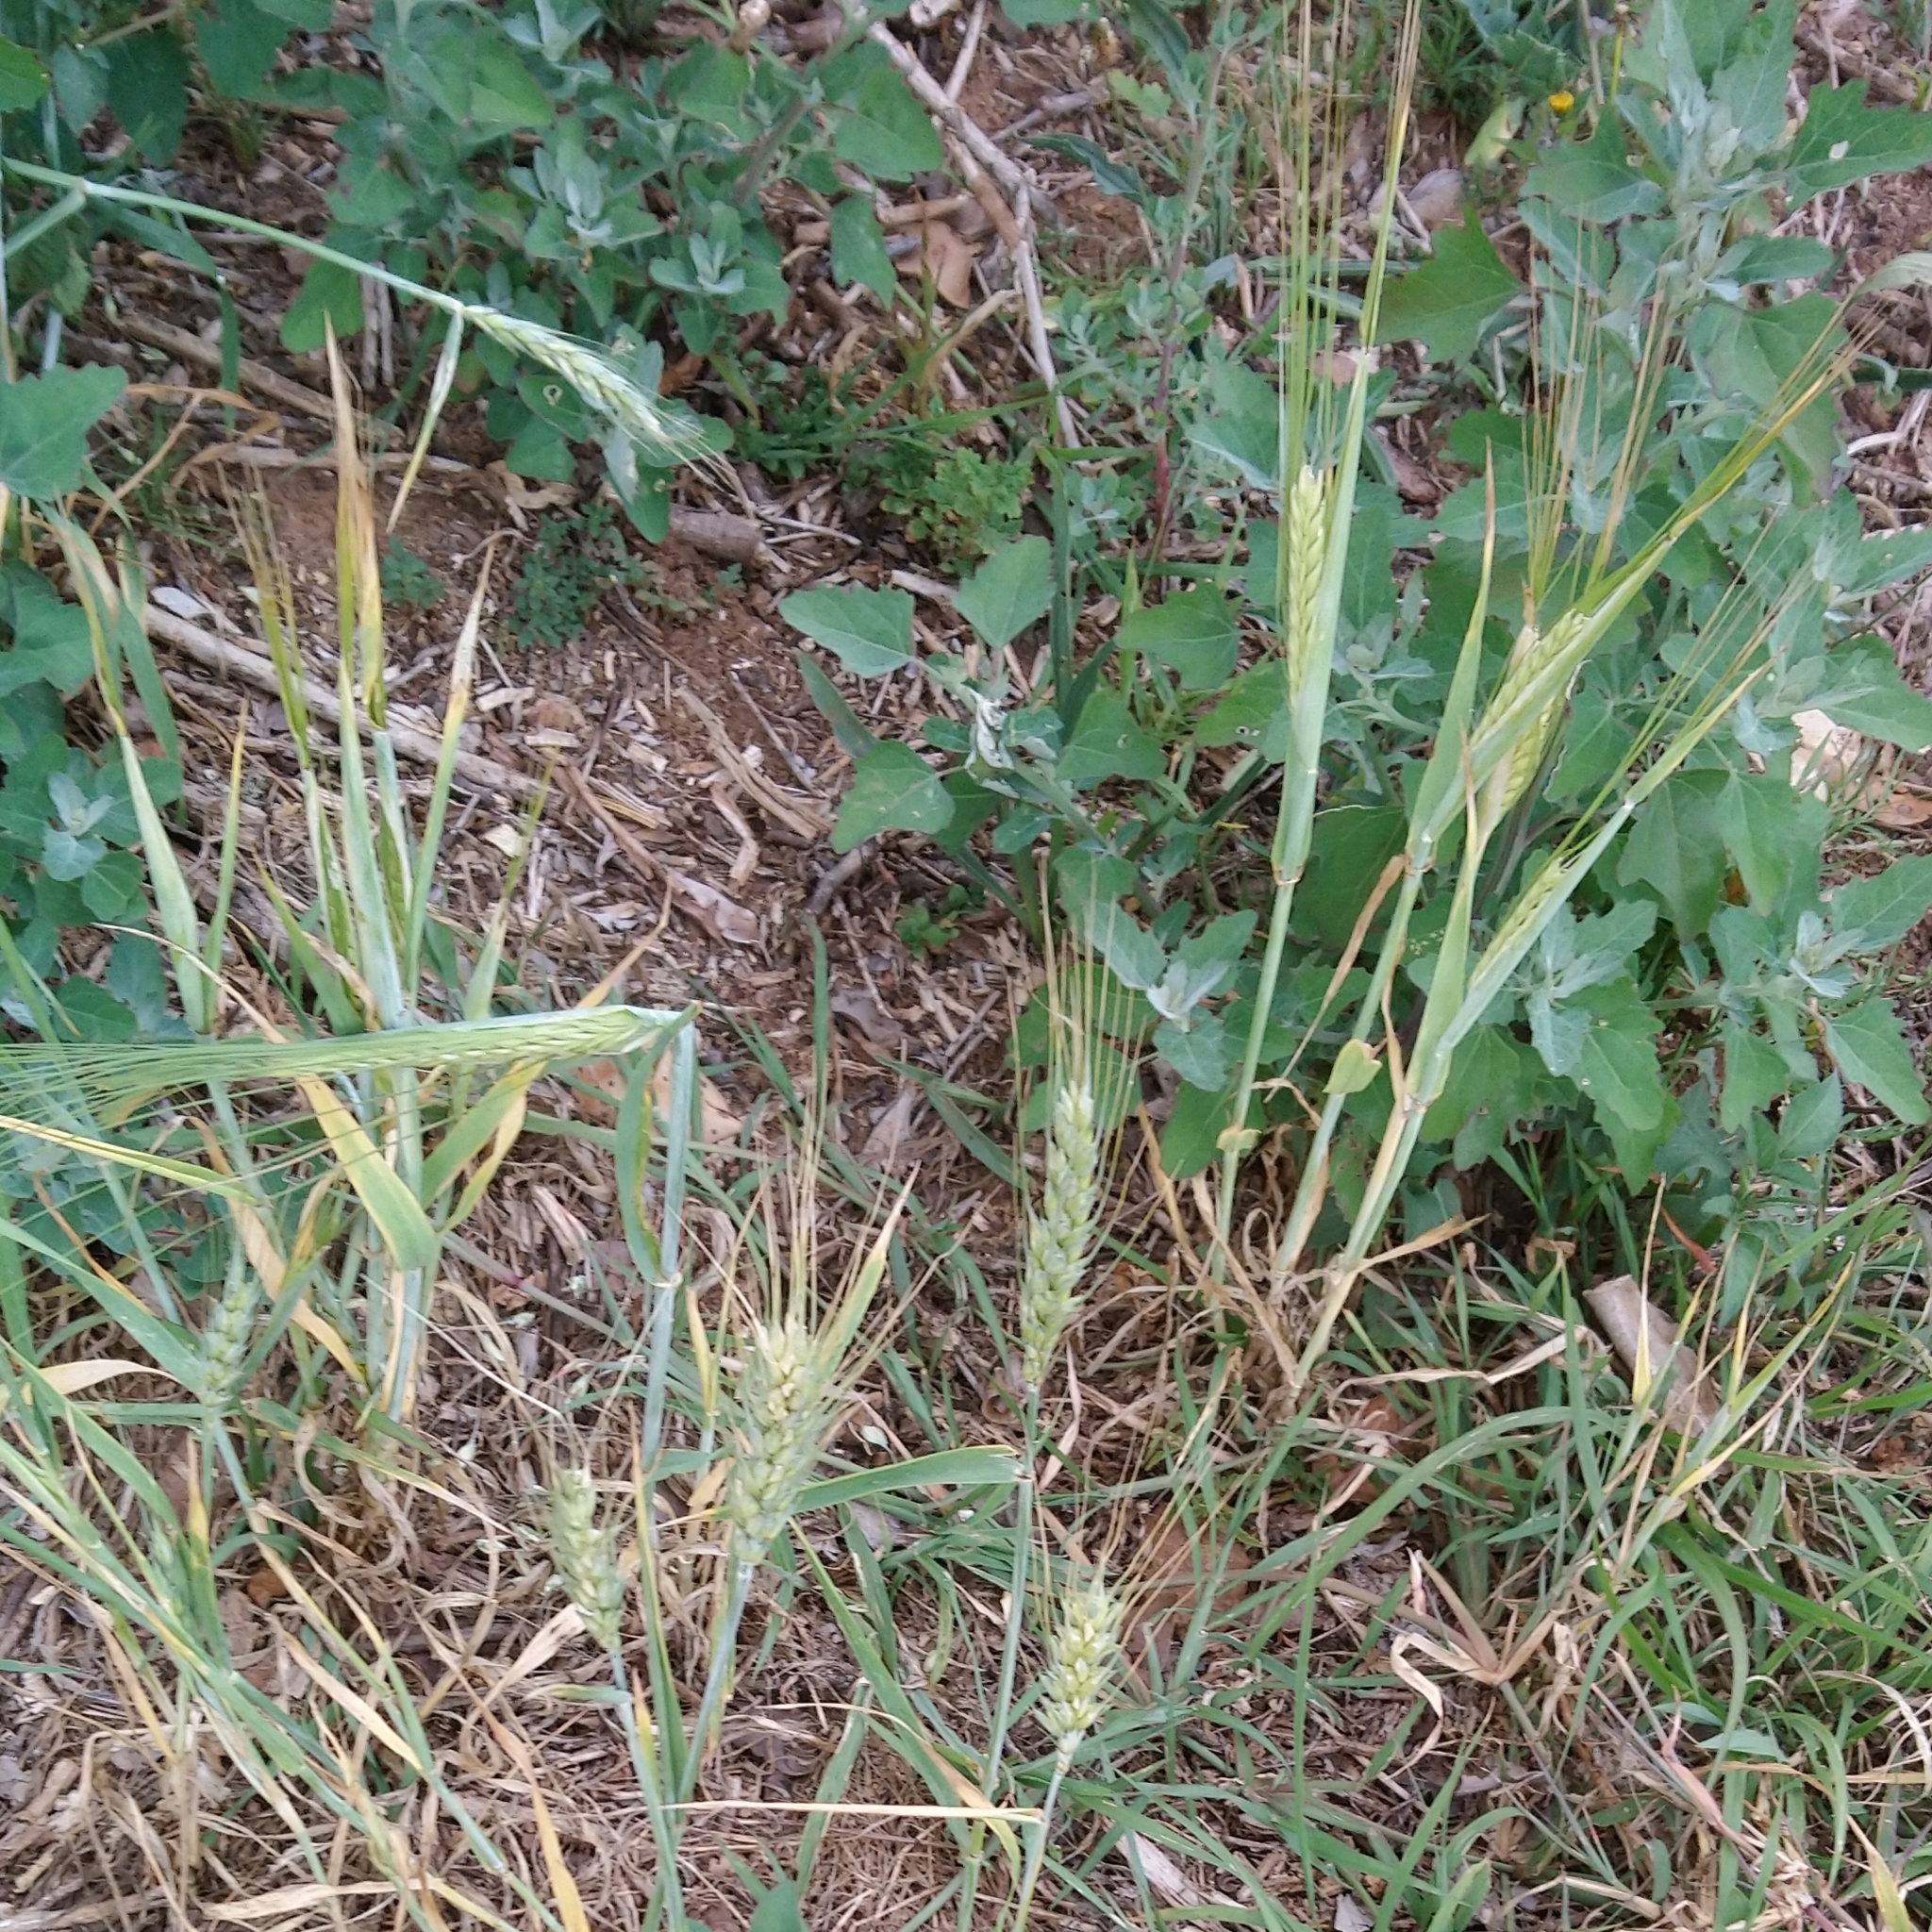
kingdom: Plantae
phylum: Tracheophyta
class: Liliopsida
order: Poales
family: Poaceae
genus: Hordeum
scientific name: Hordeum vulgare
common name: Common barley
